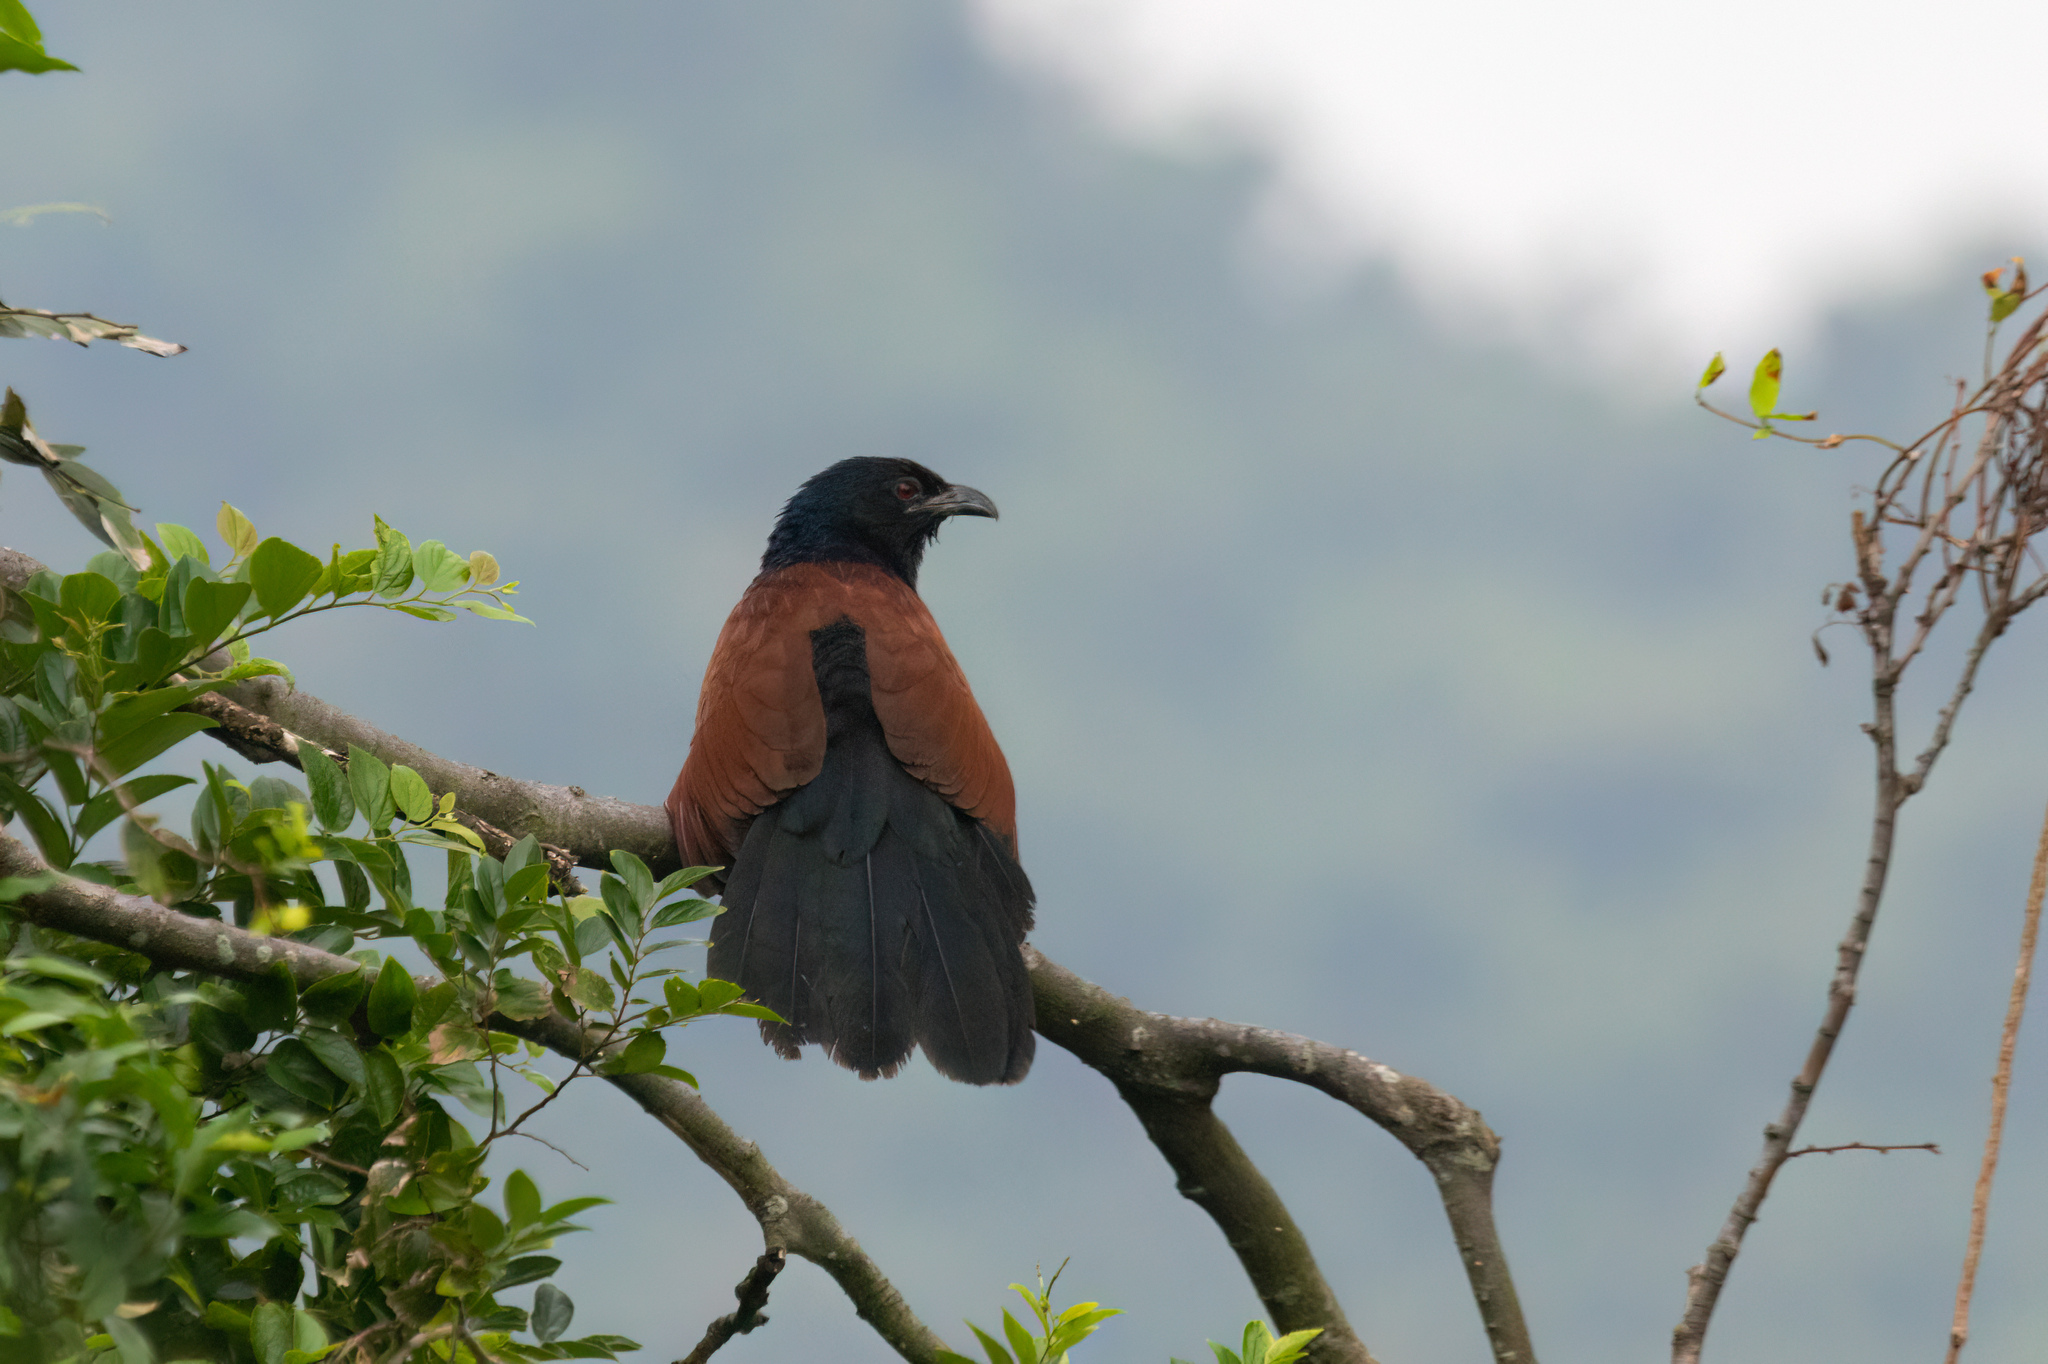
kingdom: Animalia
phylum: Chordata
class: Aves
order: Cuculiformes
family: Cuculidae
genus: Centropus
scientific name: Centropus sinensis
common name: Greater coucal
